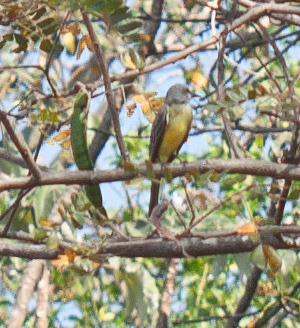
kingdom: Animalia
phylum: Chordata
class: Aves
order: Passeriformes
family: Tyrannidae
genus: Tyrannus
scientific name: Tyrannus melancholicus
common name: Tropical kingbird
